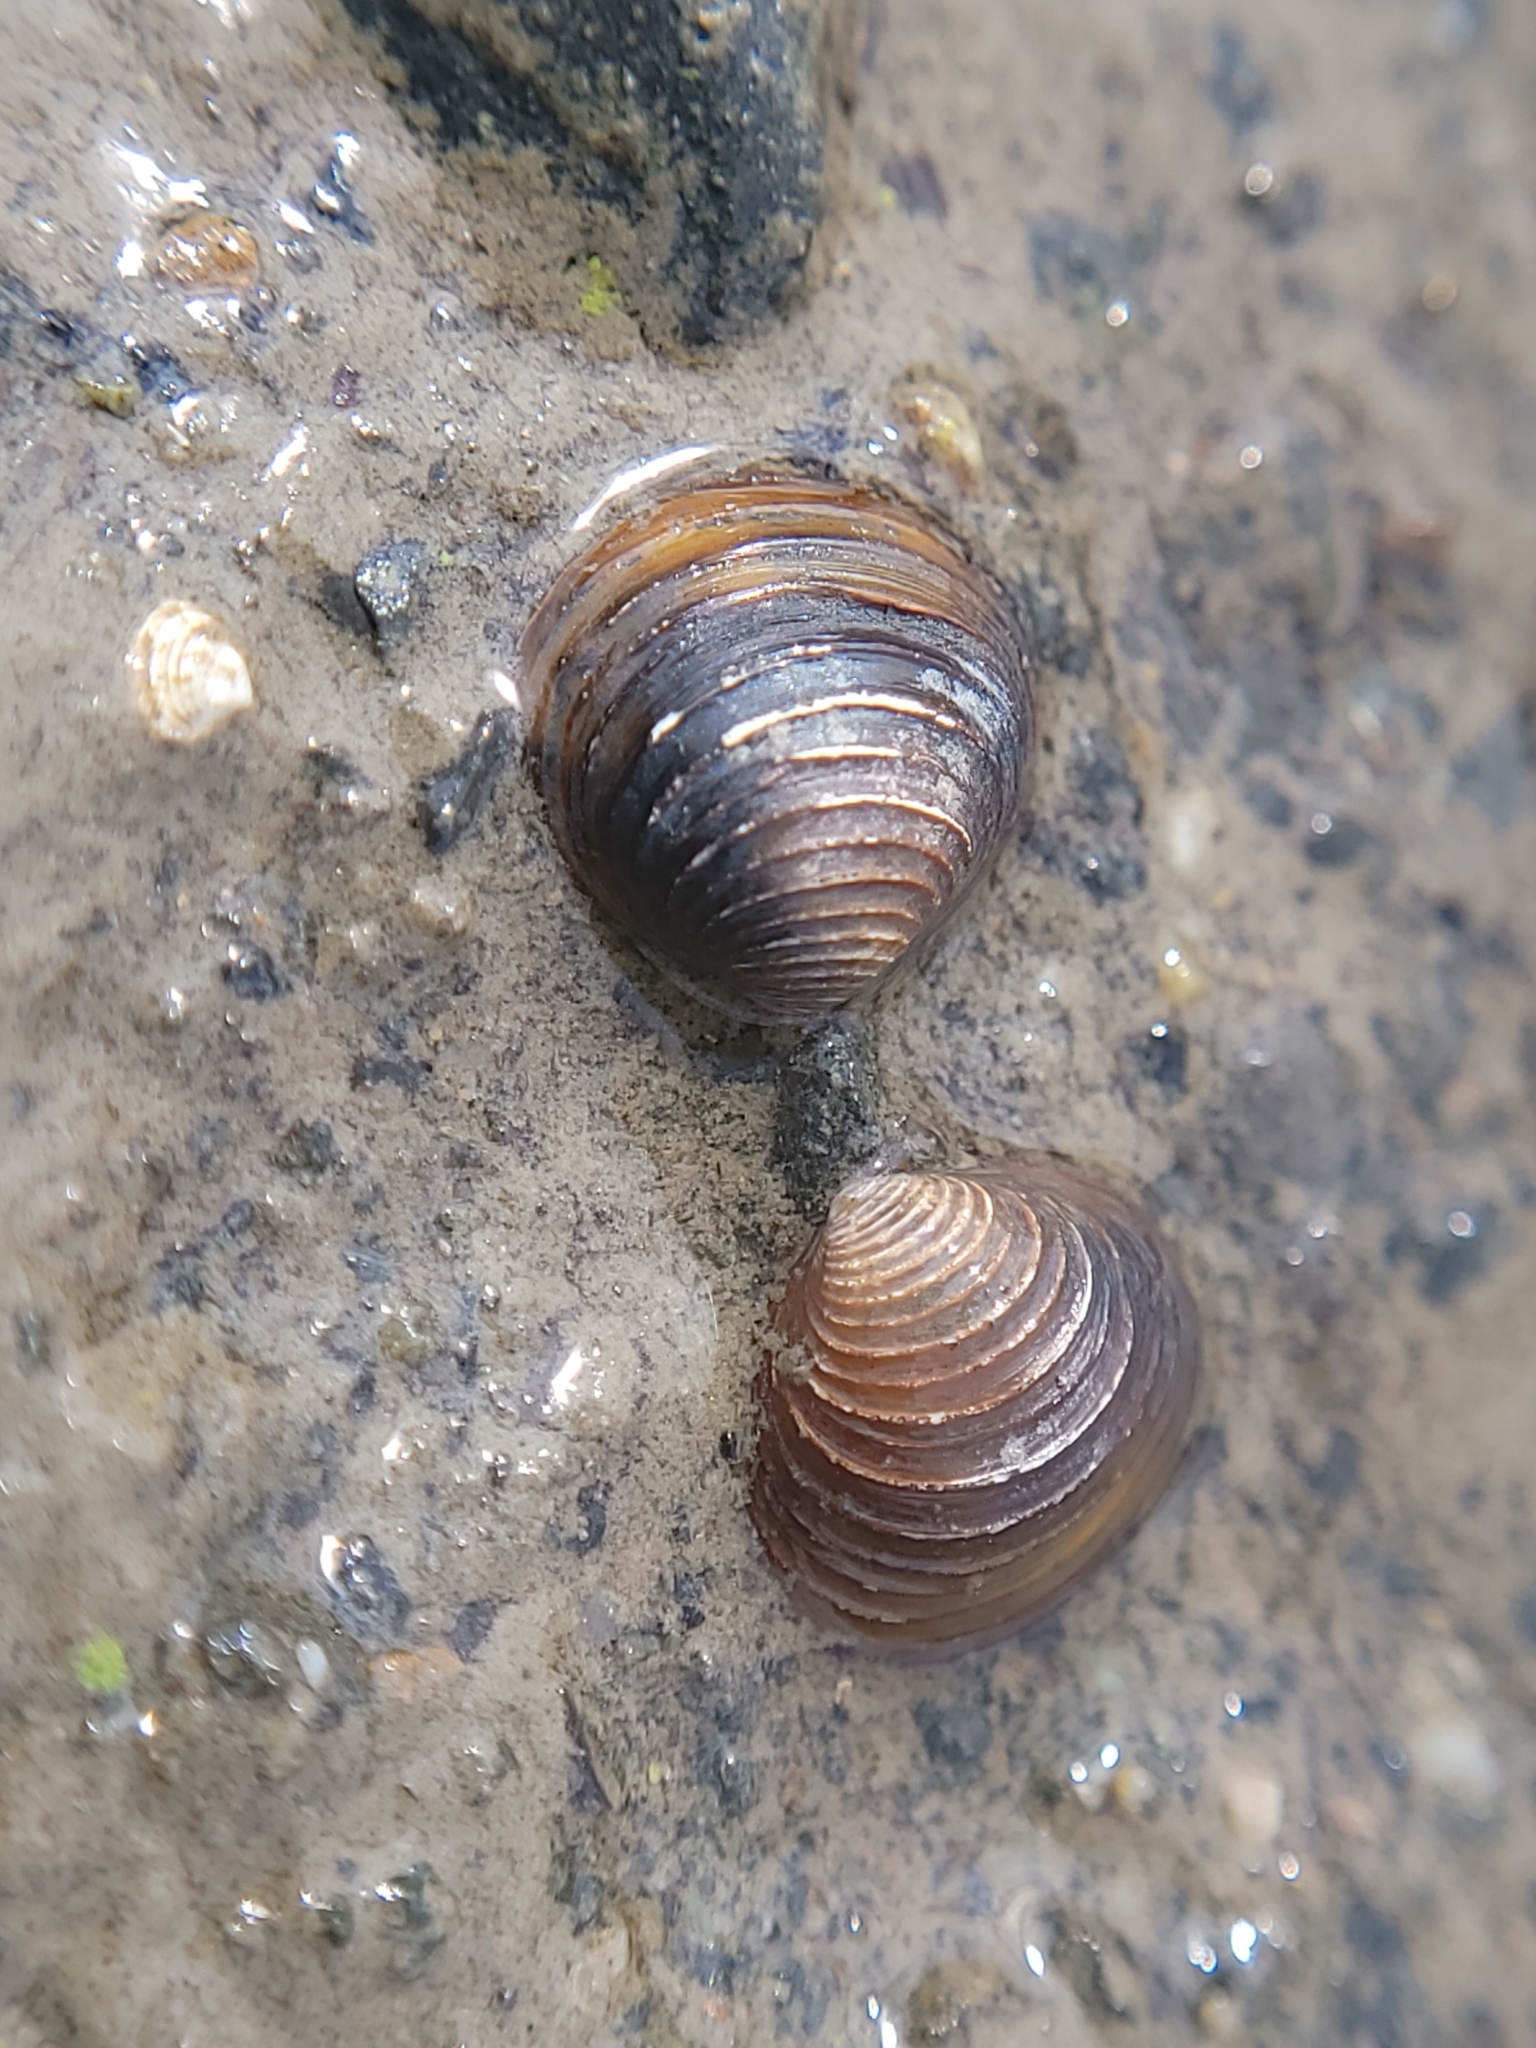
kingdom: Animalia
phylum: Mollusca
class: Bivalvia
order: Venerida
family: Cyrenidae
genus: Corbicula
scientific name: Corbicula fluminea
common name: Asian clam
